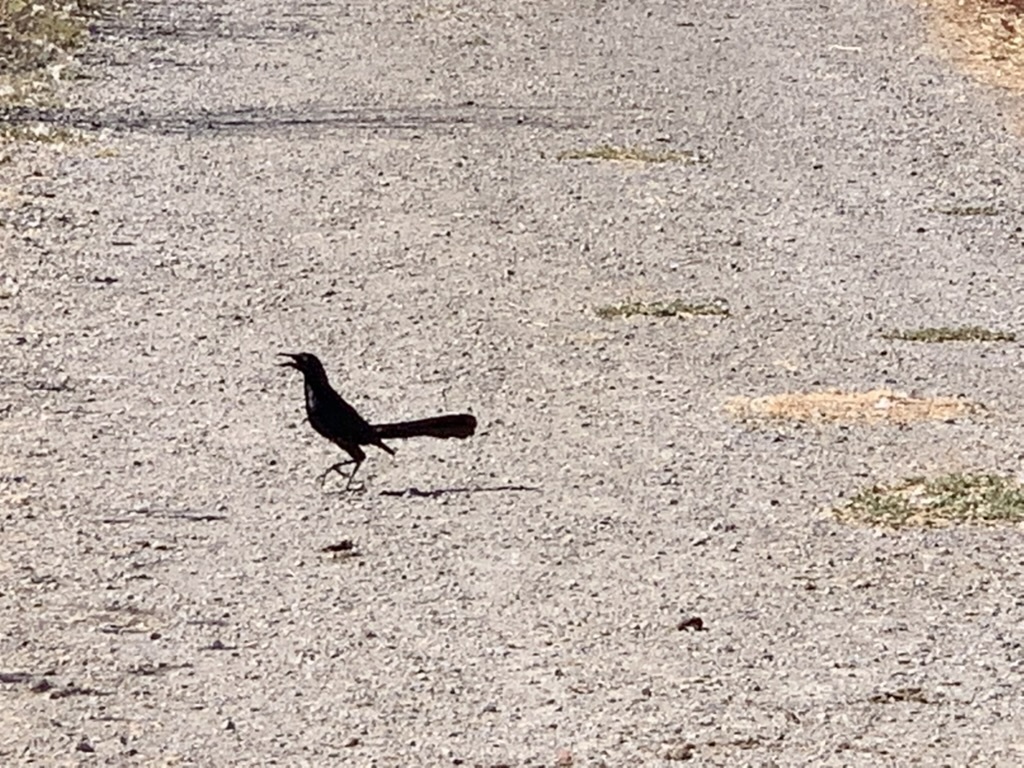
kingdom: Animalia
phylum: Chordata
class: Aves
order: Passeriformes
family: Icteridae
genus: Quiscalus
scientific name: Quiscalus mexicanus
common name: Great-tailed grackle
